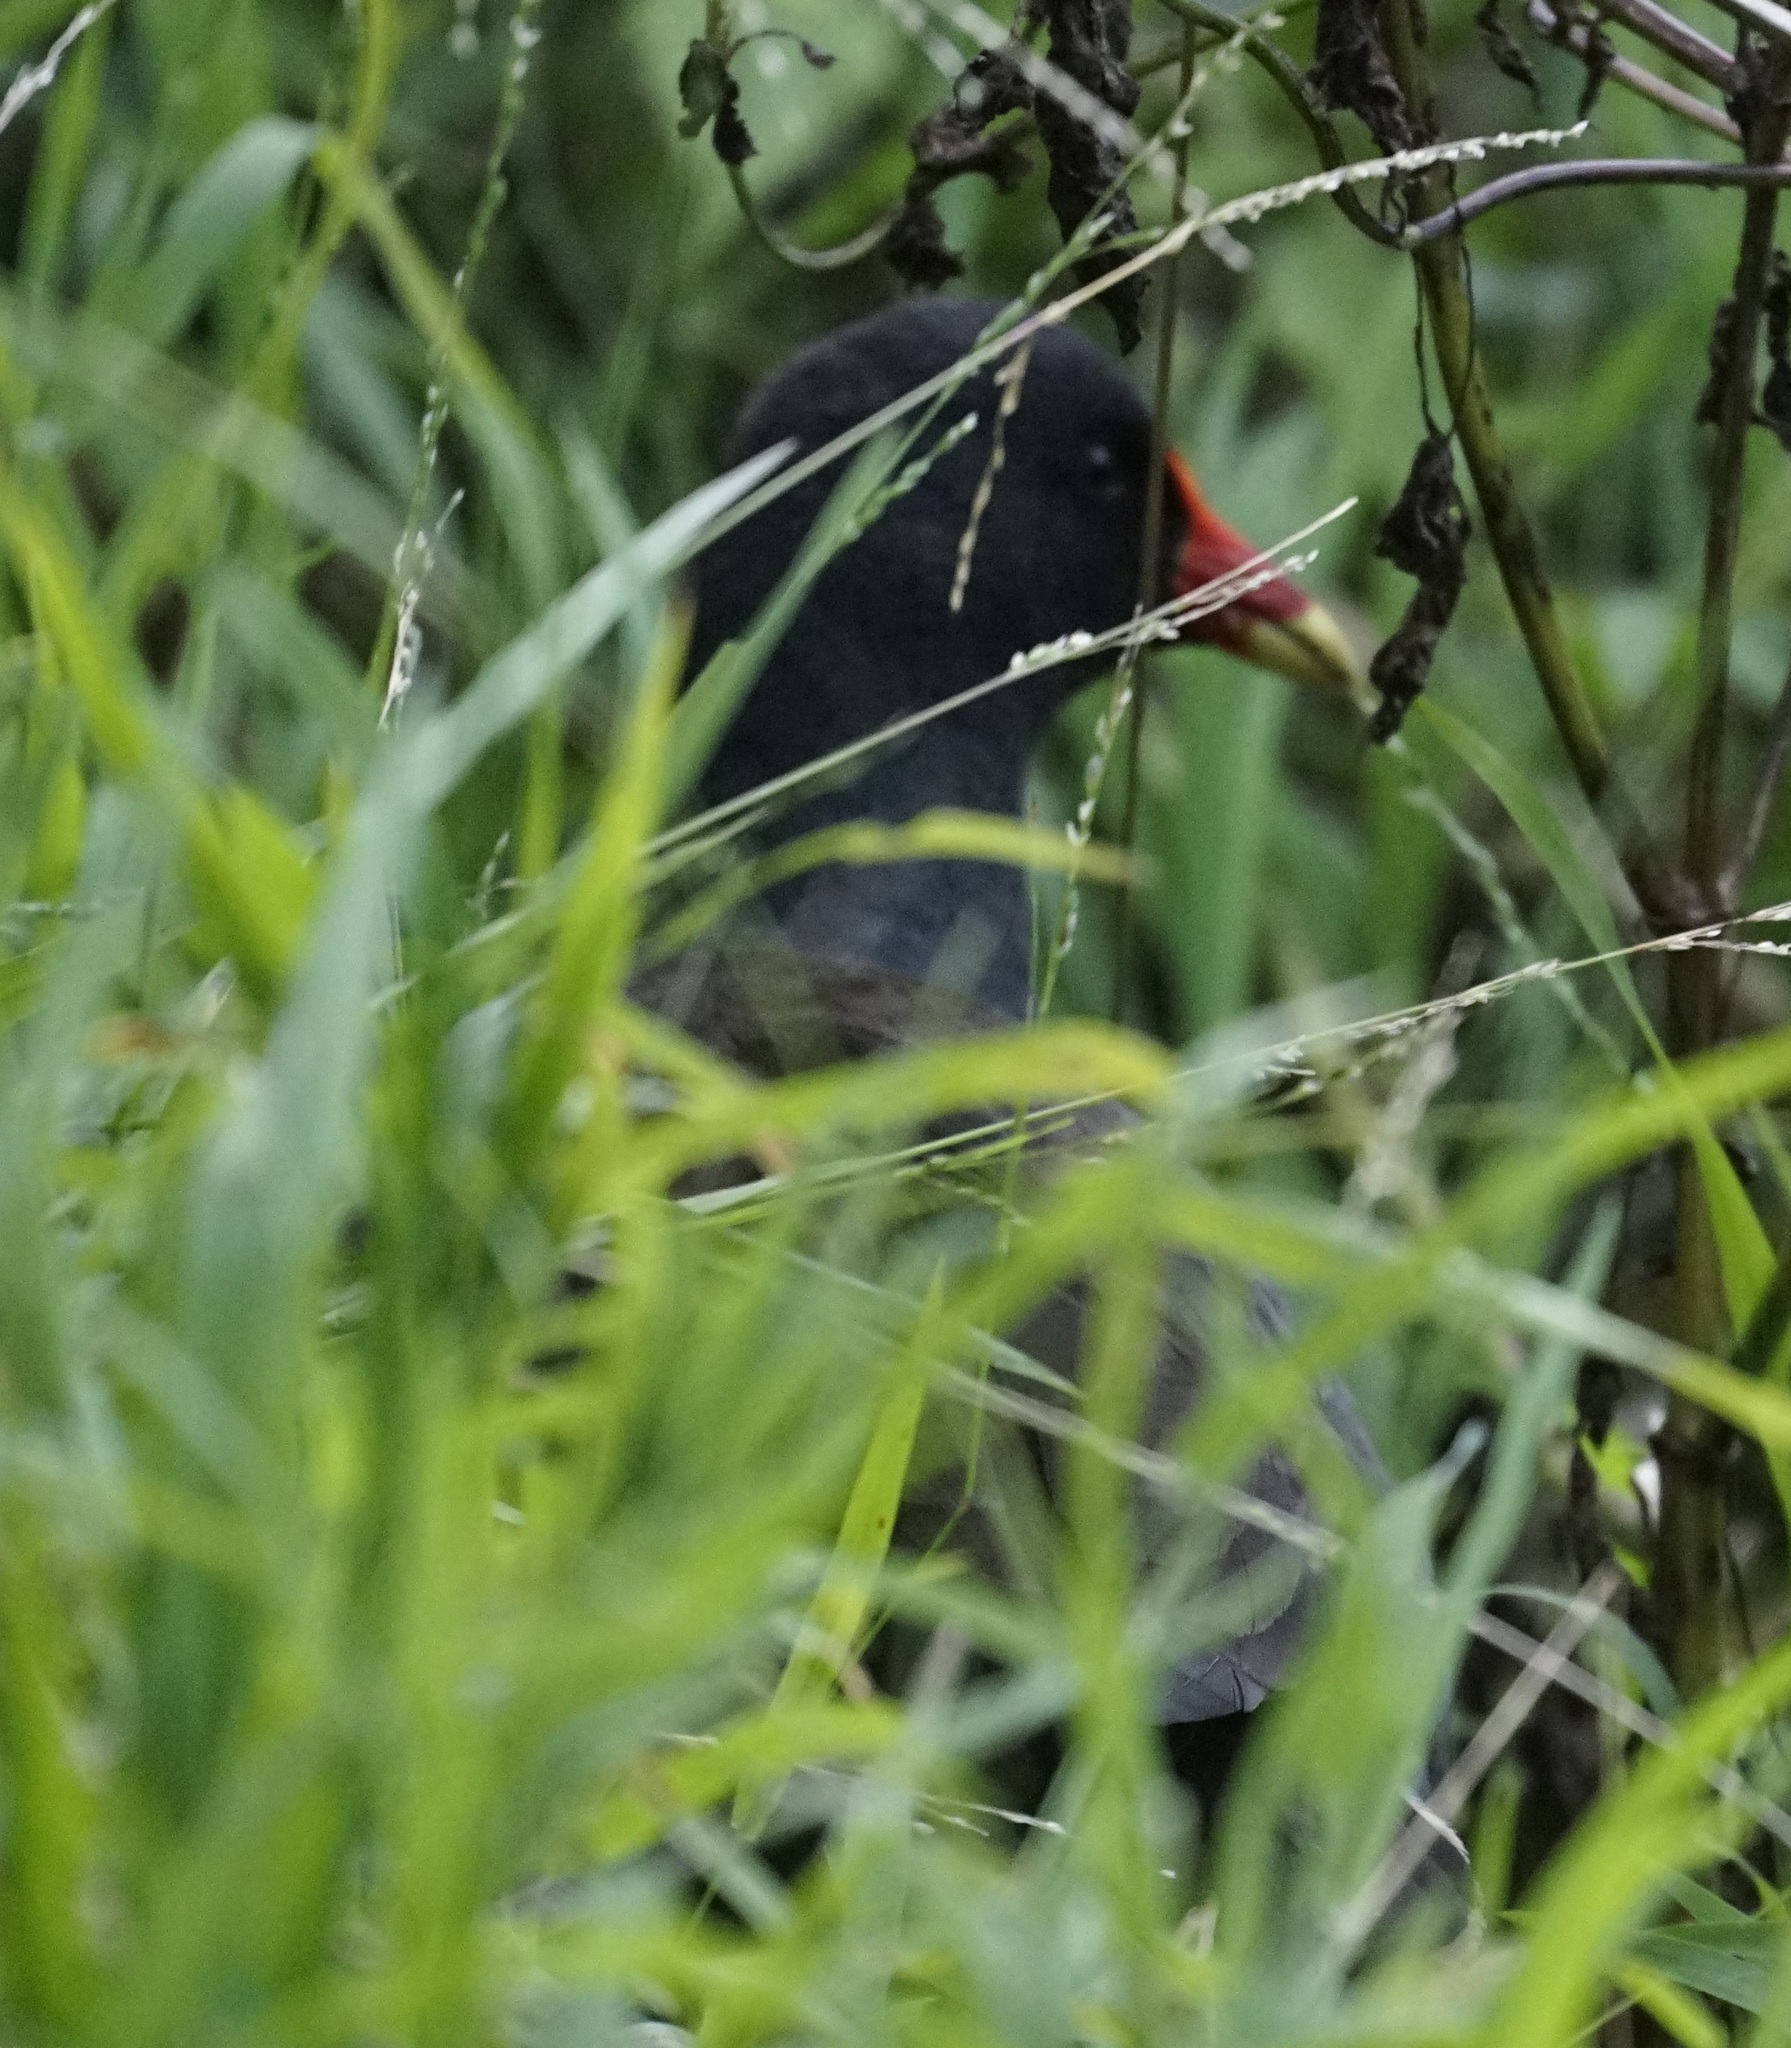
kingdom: Animalia
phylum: Chordata
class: Aves
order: Gruiformes
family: Rallidae
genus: Gallinula
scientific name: Gallinula tenebrosa
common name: Dusky moorhen
